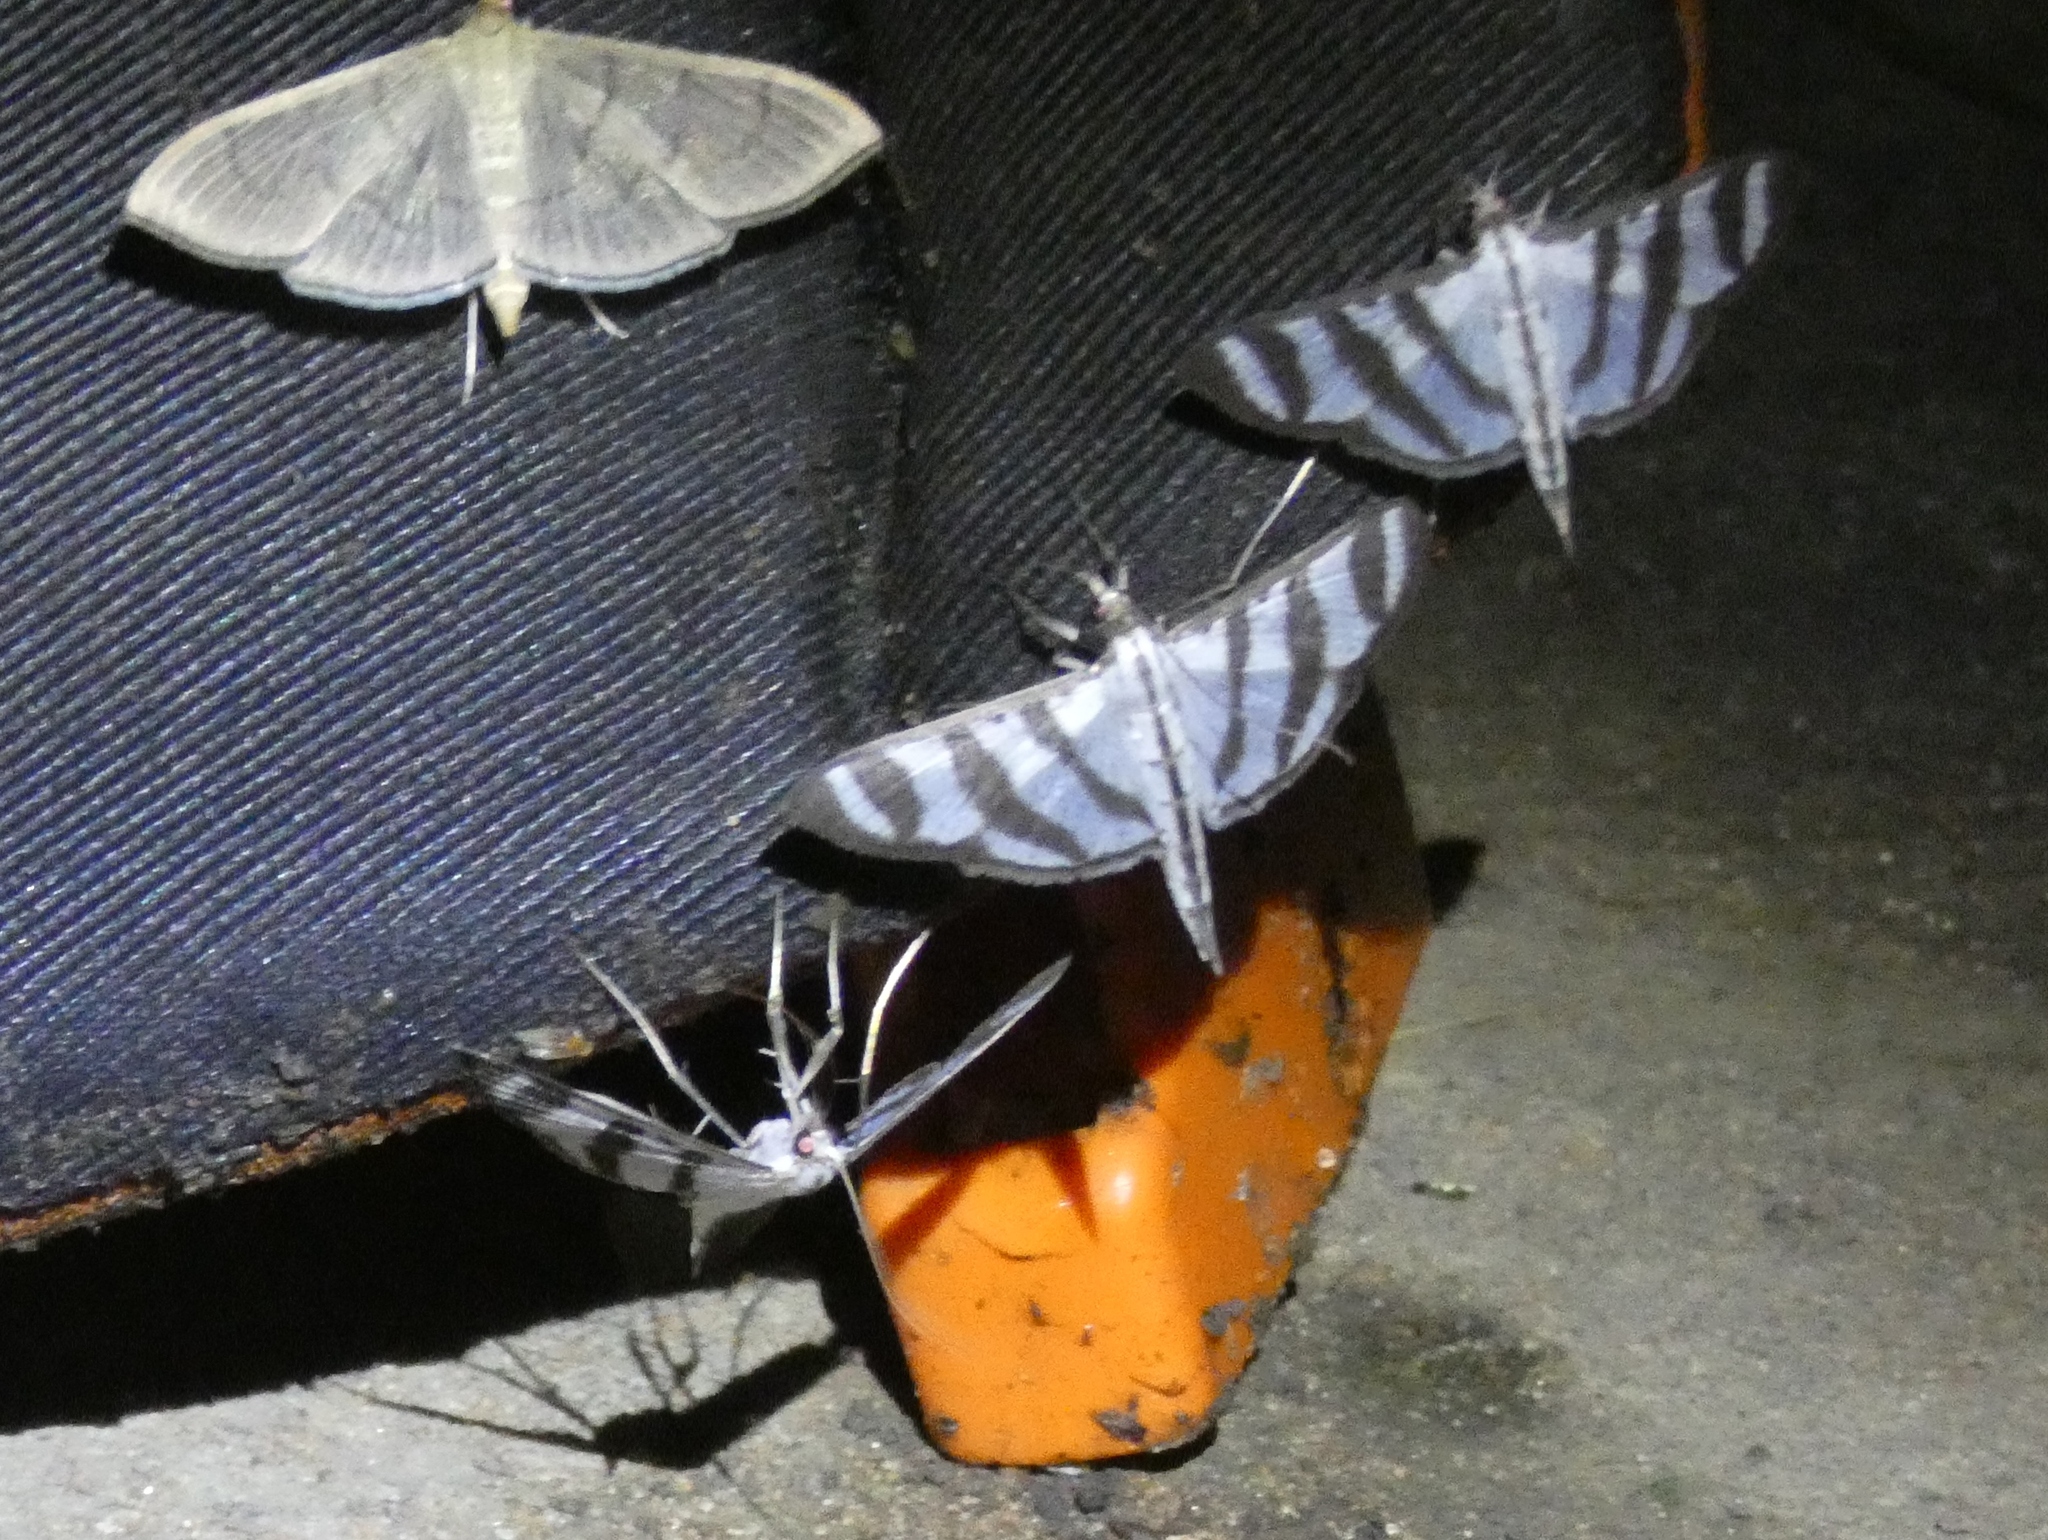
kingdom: Animalia
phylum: Arthropoda
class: Insecta
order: Lepidoptera
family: Crambidae
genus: Zebronia
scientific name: Zebronia phenice
